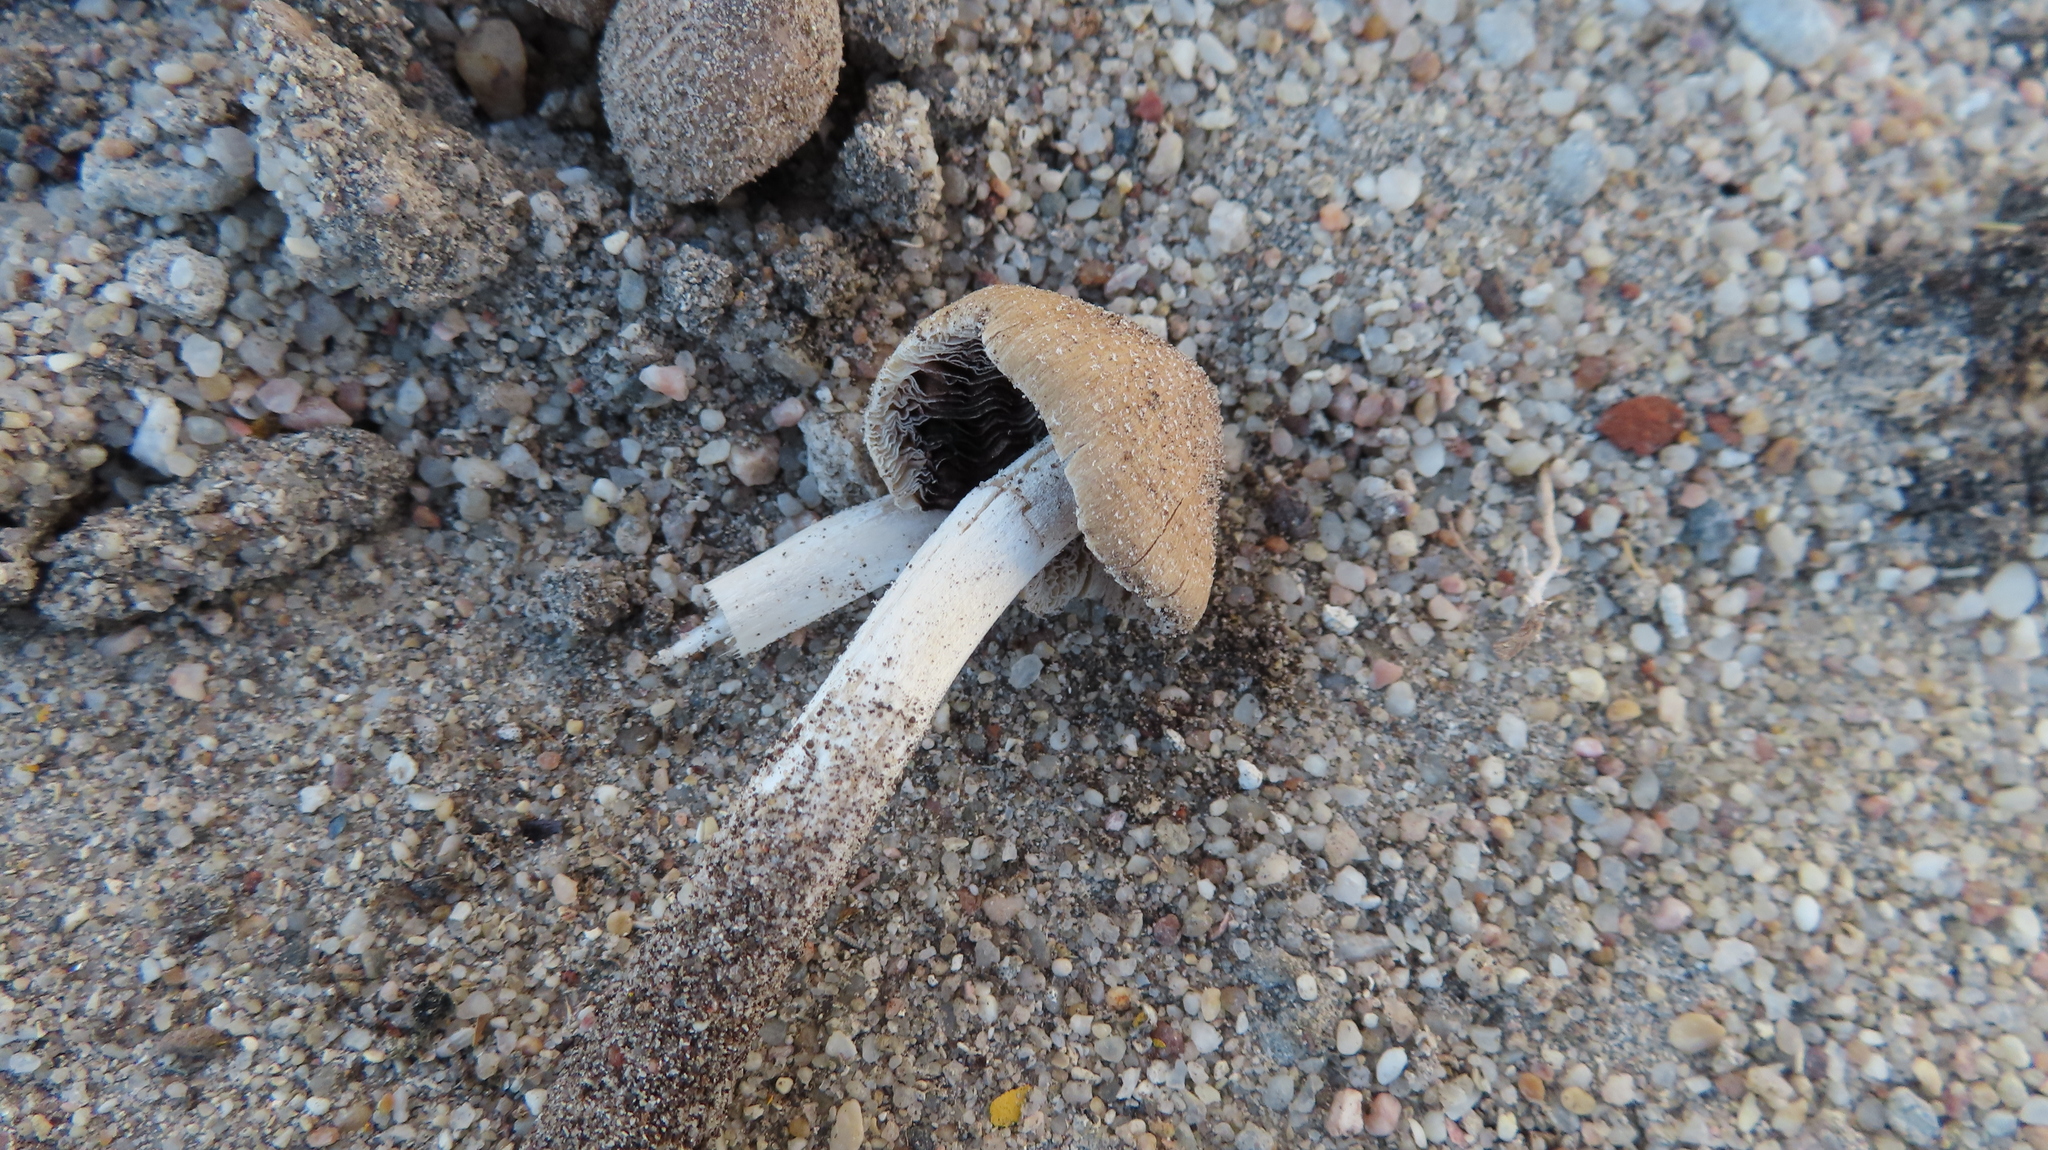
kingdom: Fungi
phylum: Basidiomycota
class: Agaricomycetes
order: Agaricales
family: Psathyrellaceae
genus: Coprinellus
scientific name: Coprinellus micaceus
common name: Glistening ink-cap
